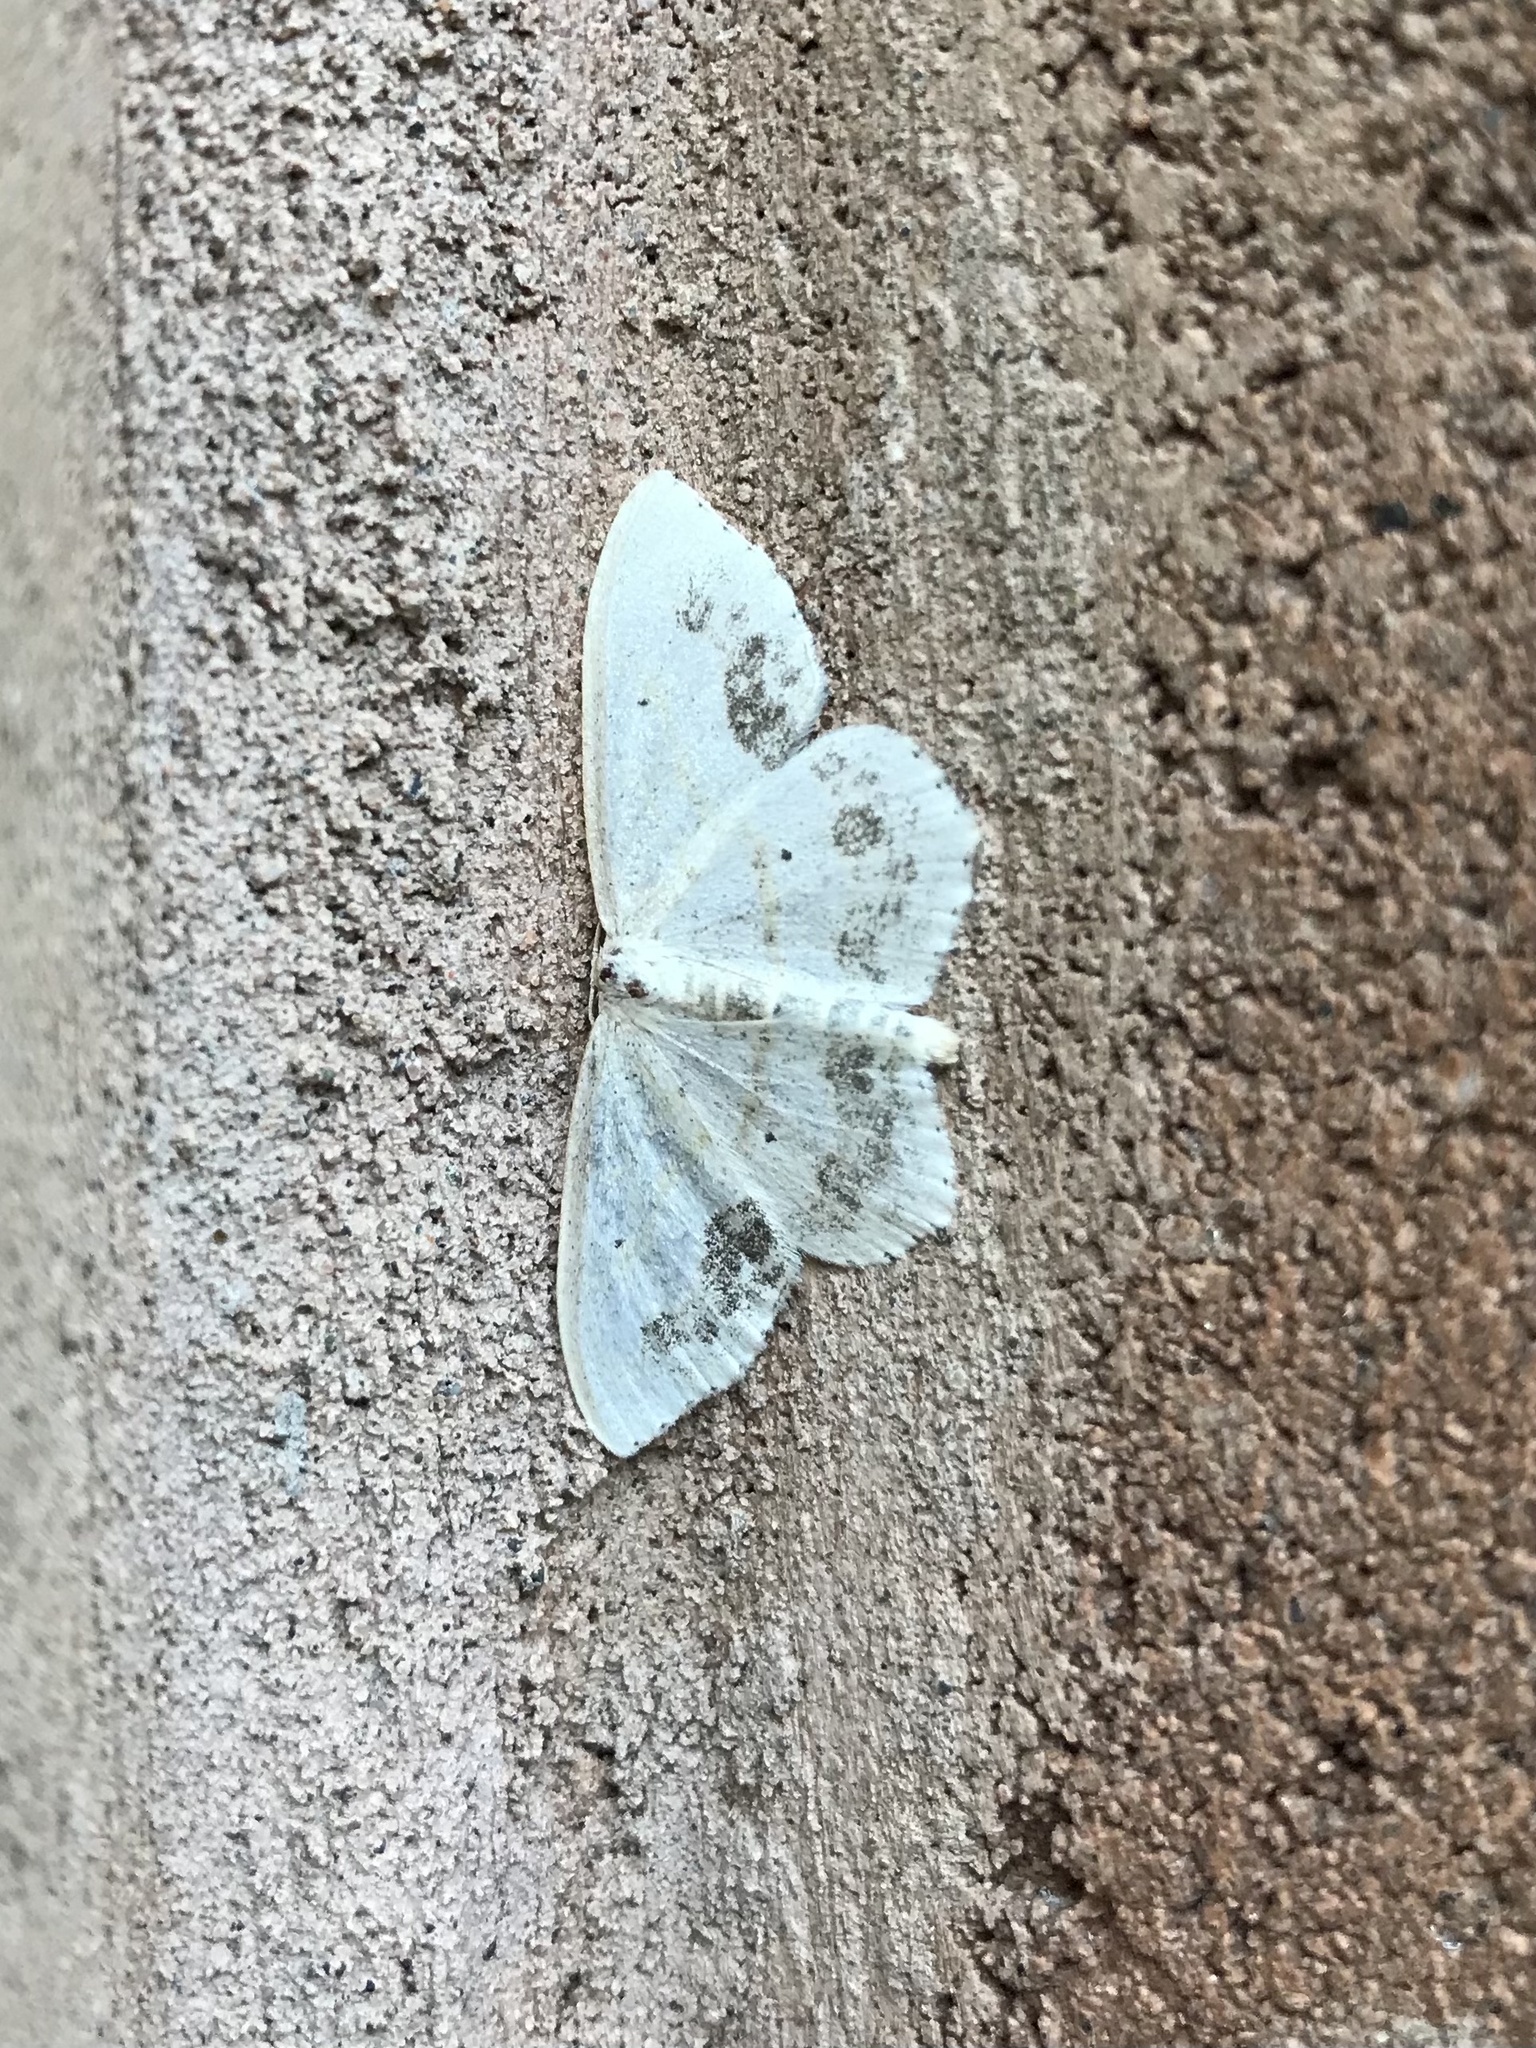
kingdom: Animalia
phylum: Arthropoda
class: Insecta
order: Lepidoptera
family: Geometridae
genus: Scopula
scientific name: Scopula limboundata
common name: Large lace border
